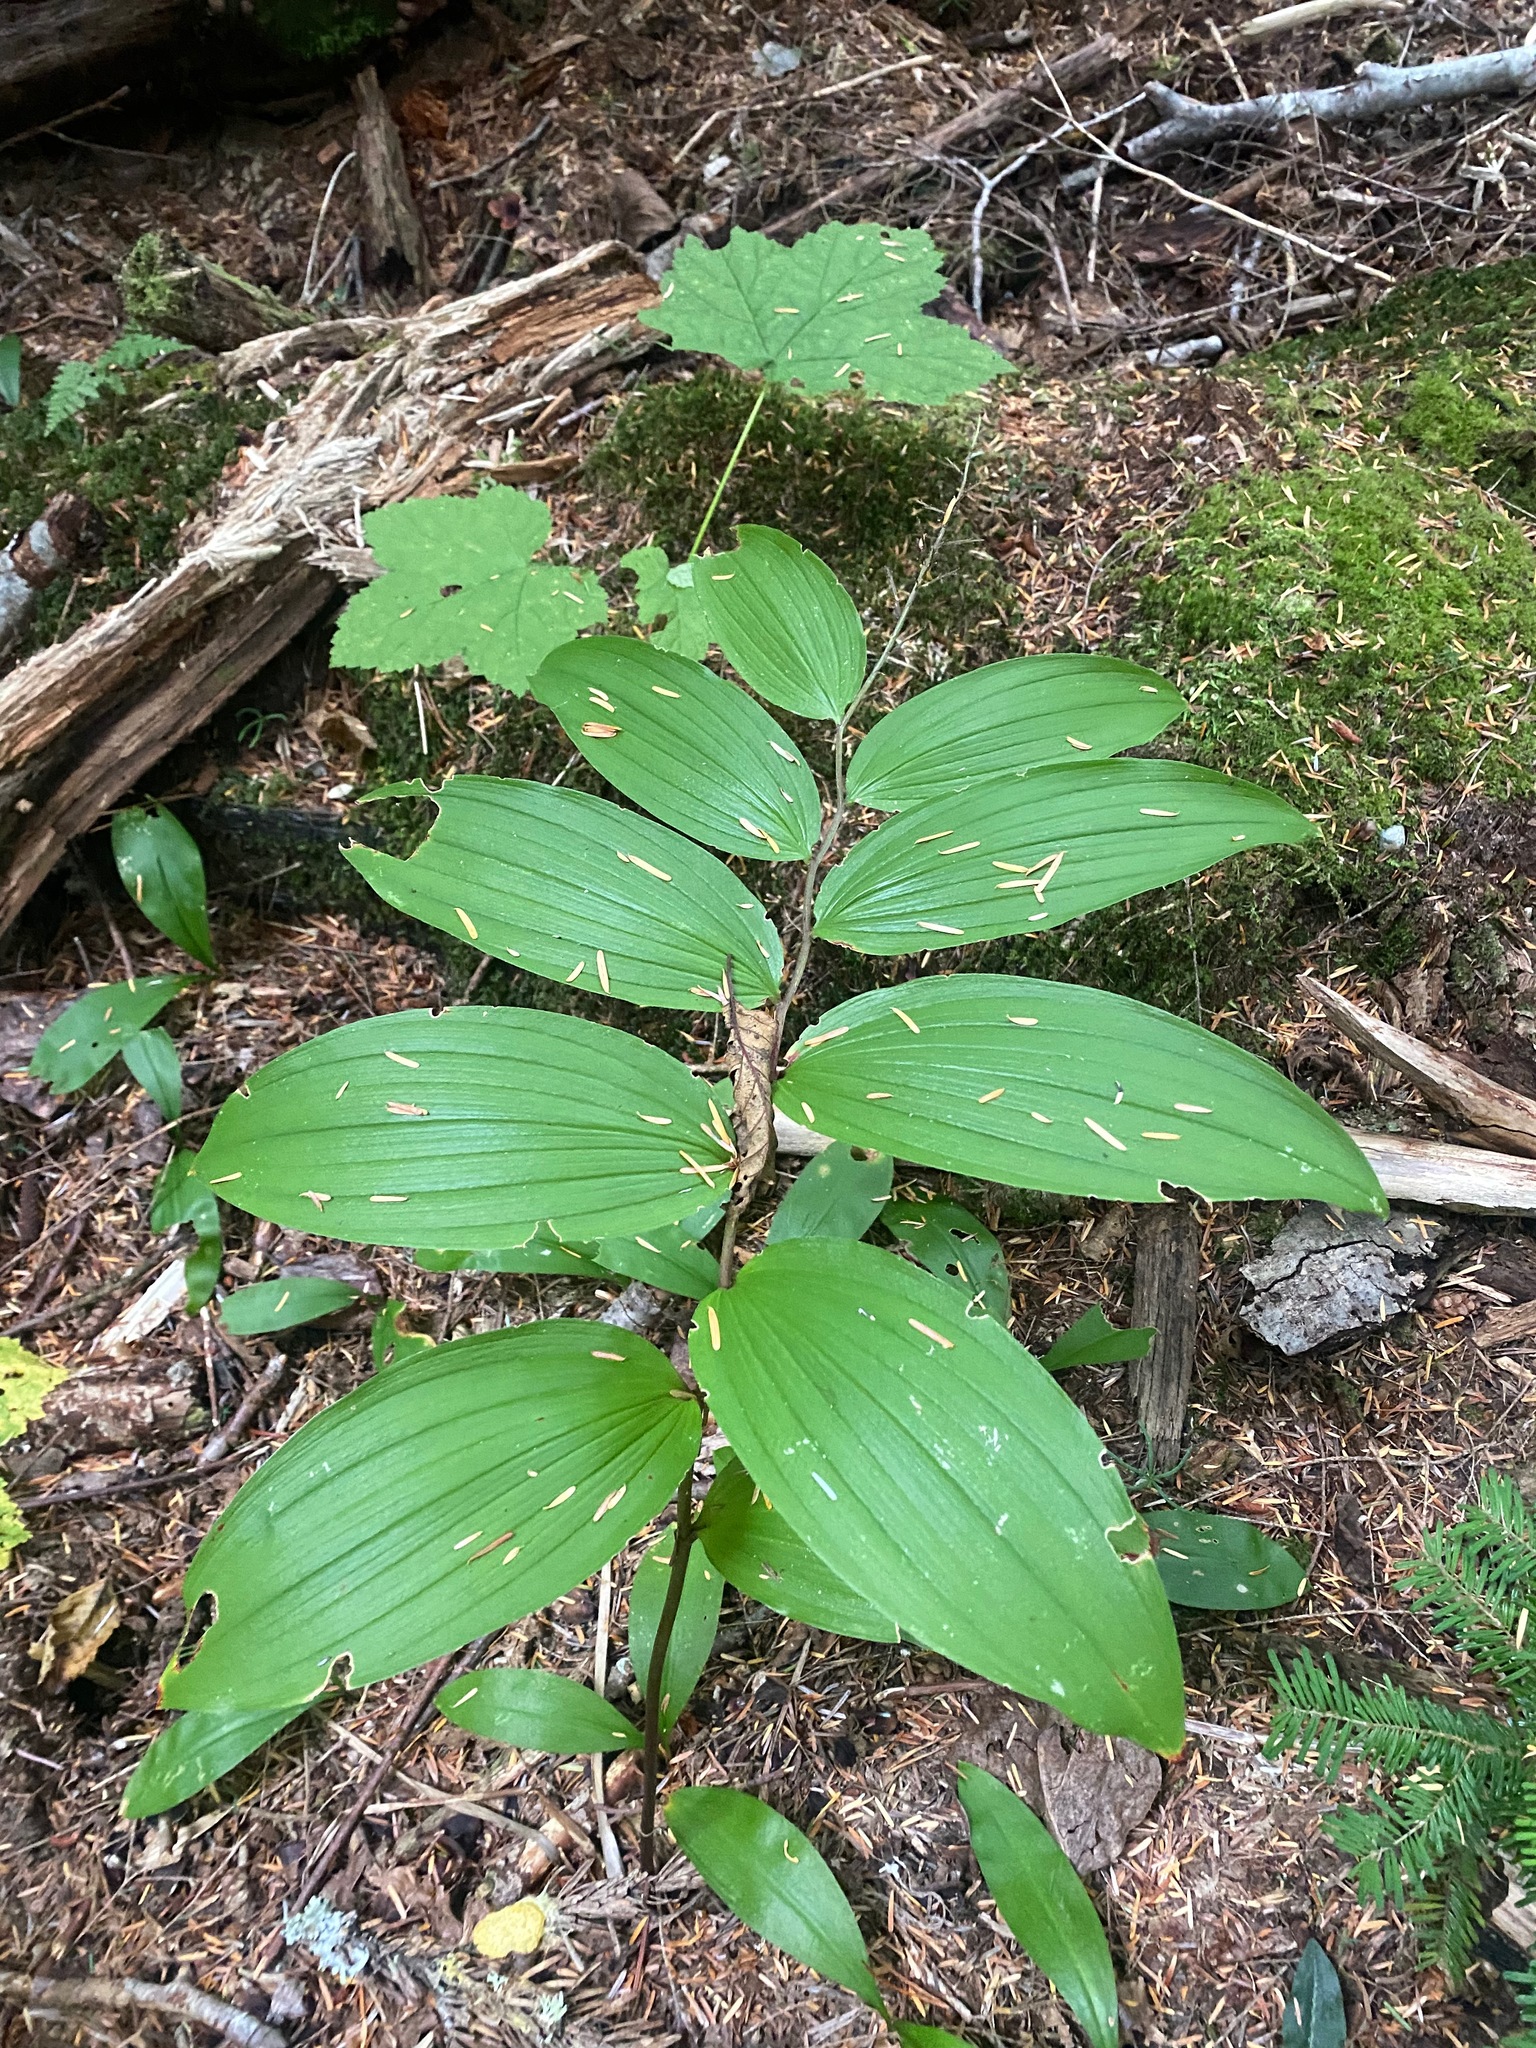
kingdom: Plantae
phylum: Tracheophyta
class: Liliopsida
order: Asparagales
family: Asparagaceae
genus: Maianthemum
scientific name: Maianthemum racemosum
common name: False spikenard
